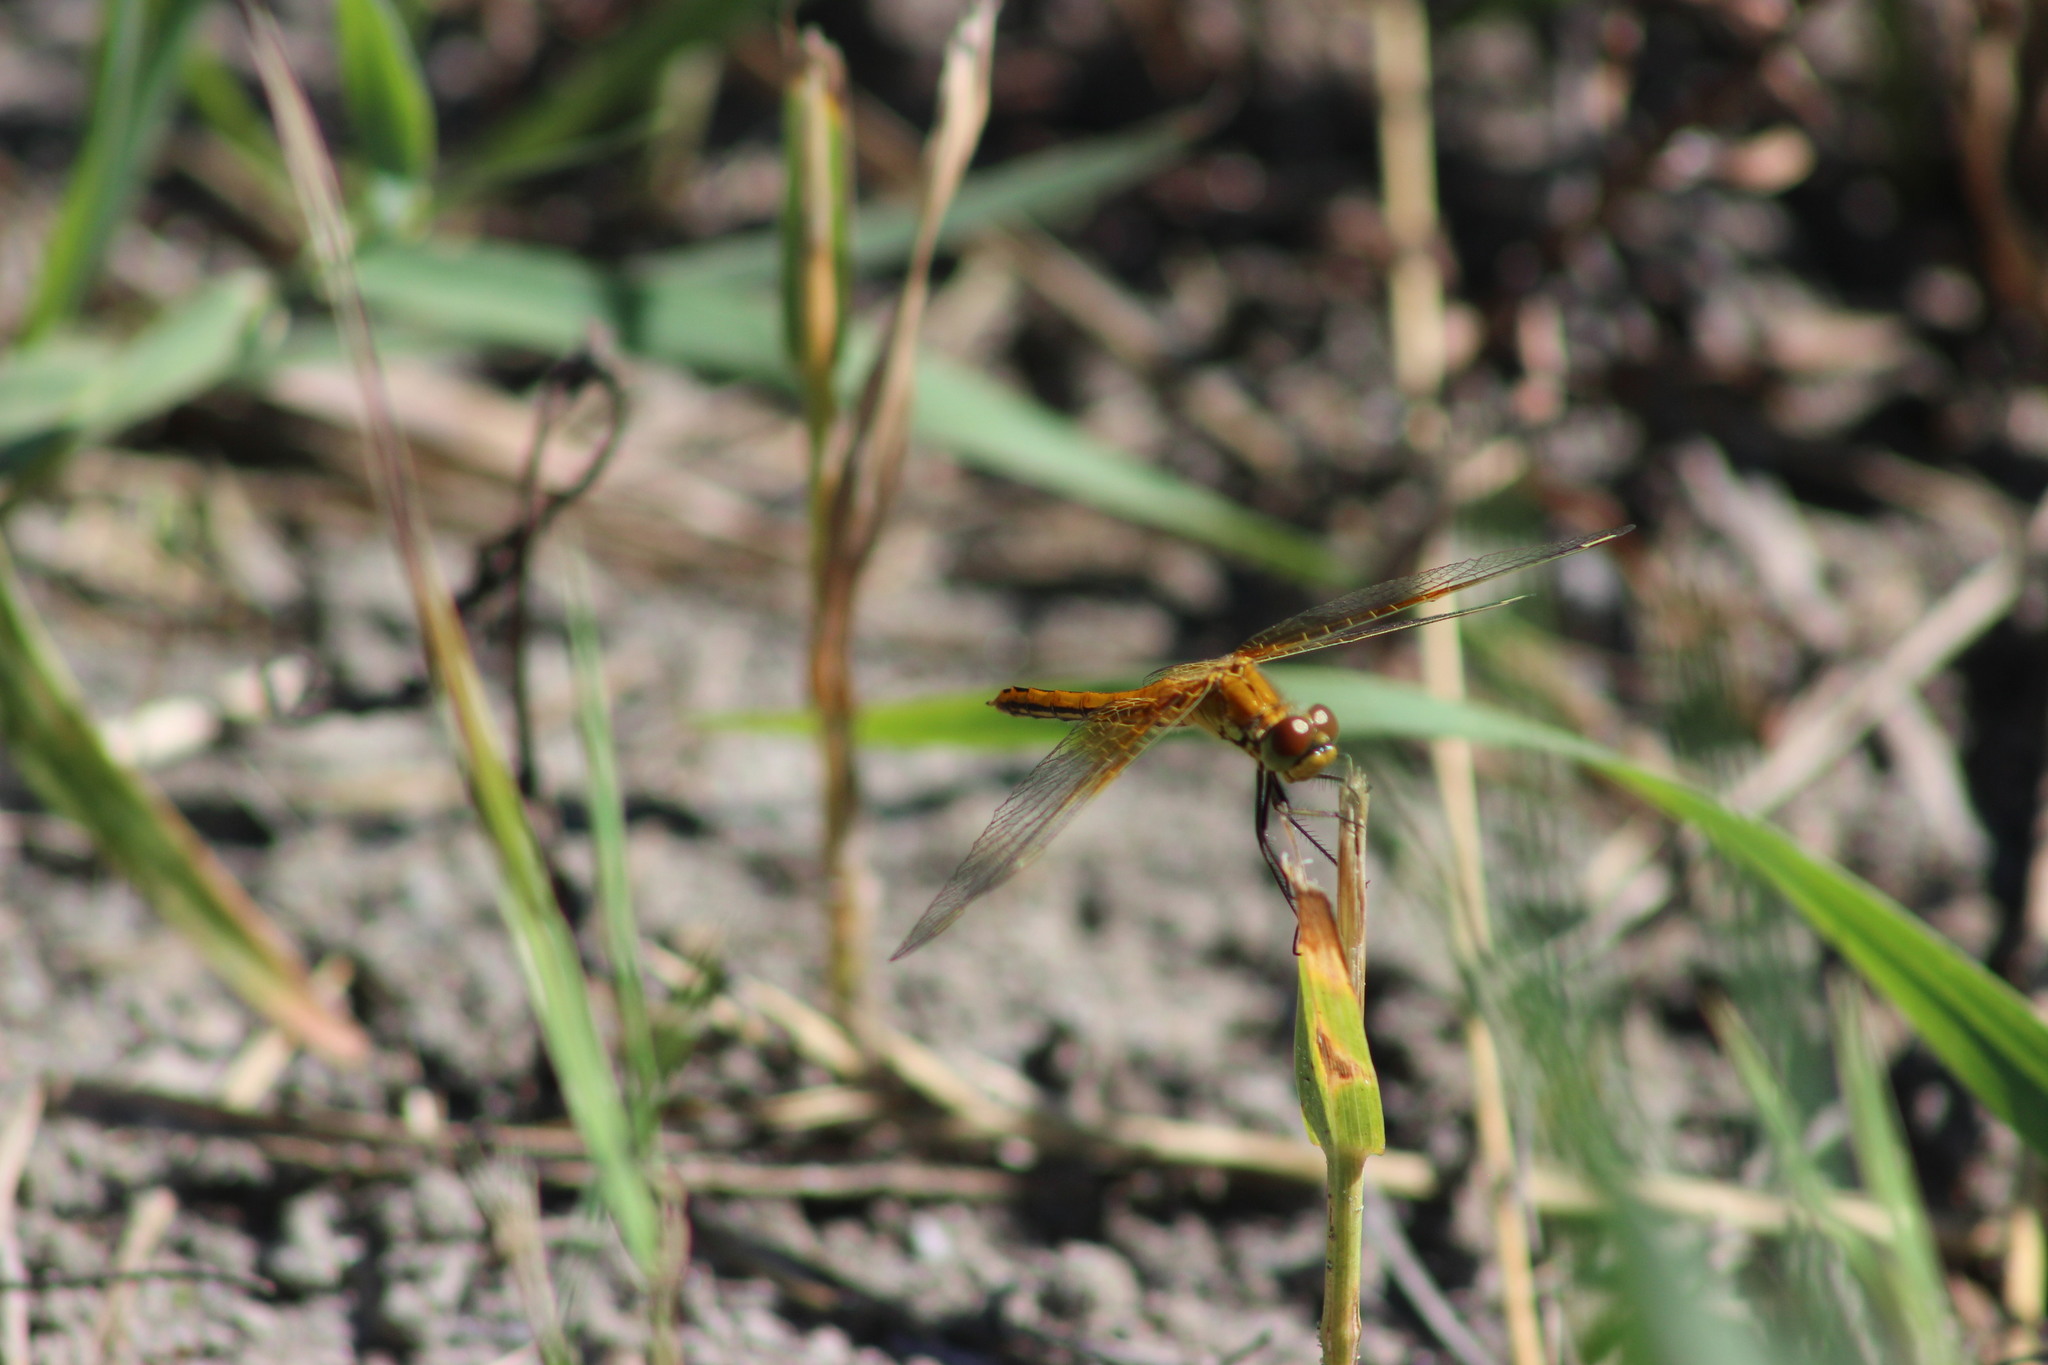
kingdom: Animalia
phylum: Arthropoda
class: Insecta
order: Odonata
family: Libellulidae
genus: Sympetrum
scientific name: Sympetrum flaveolum
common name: Yellow-winged darter
